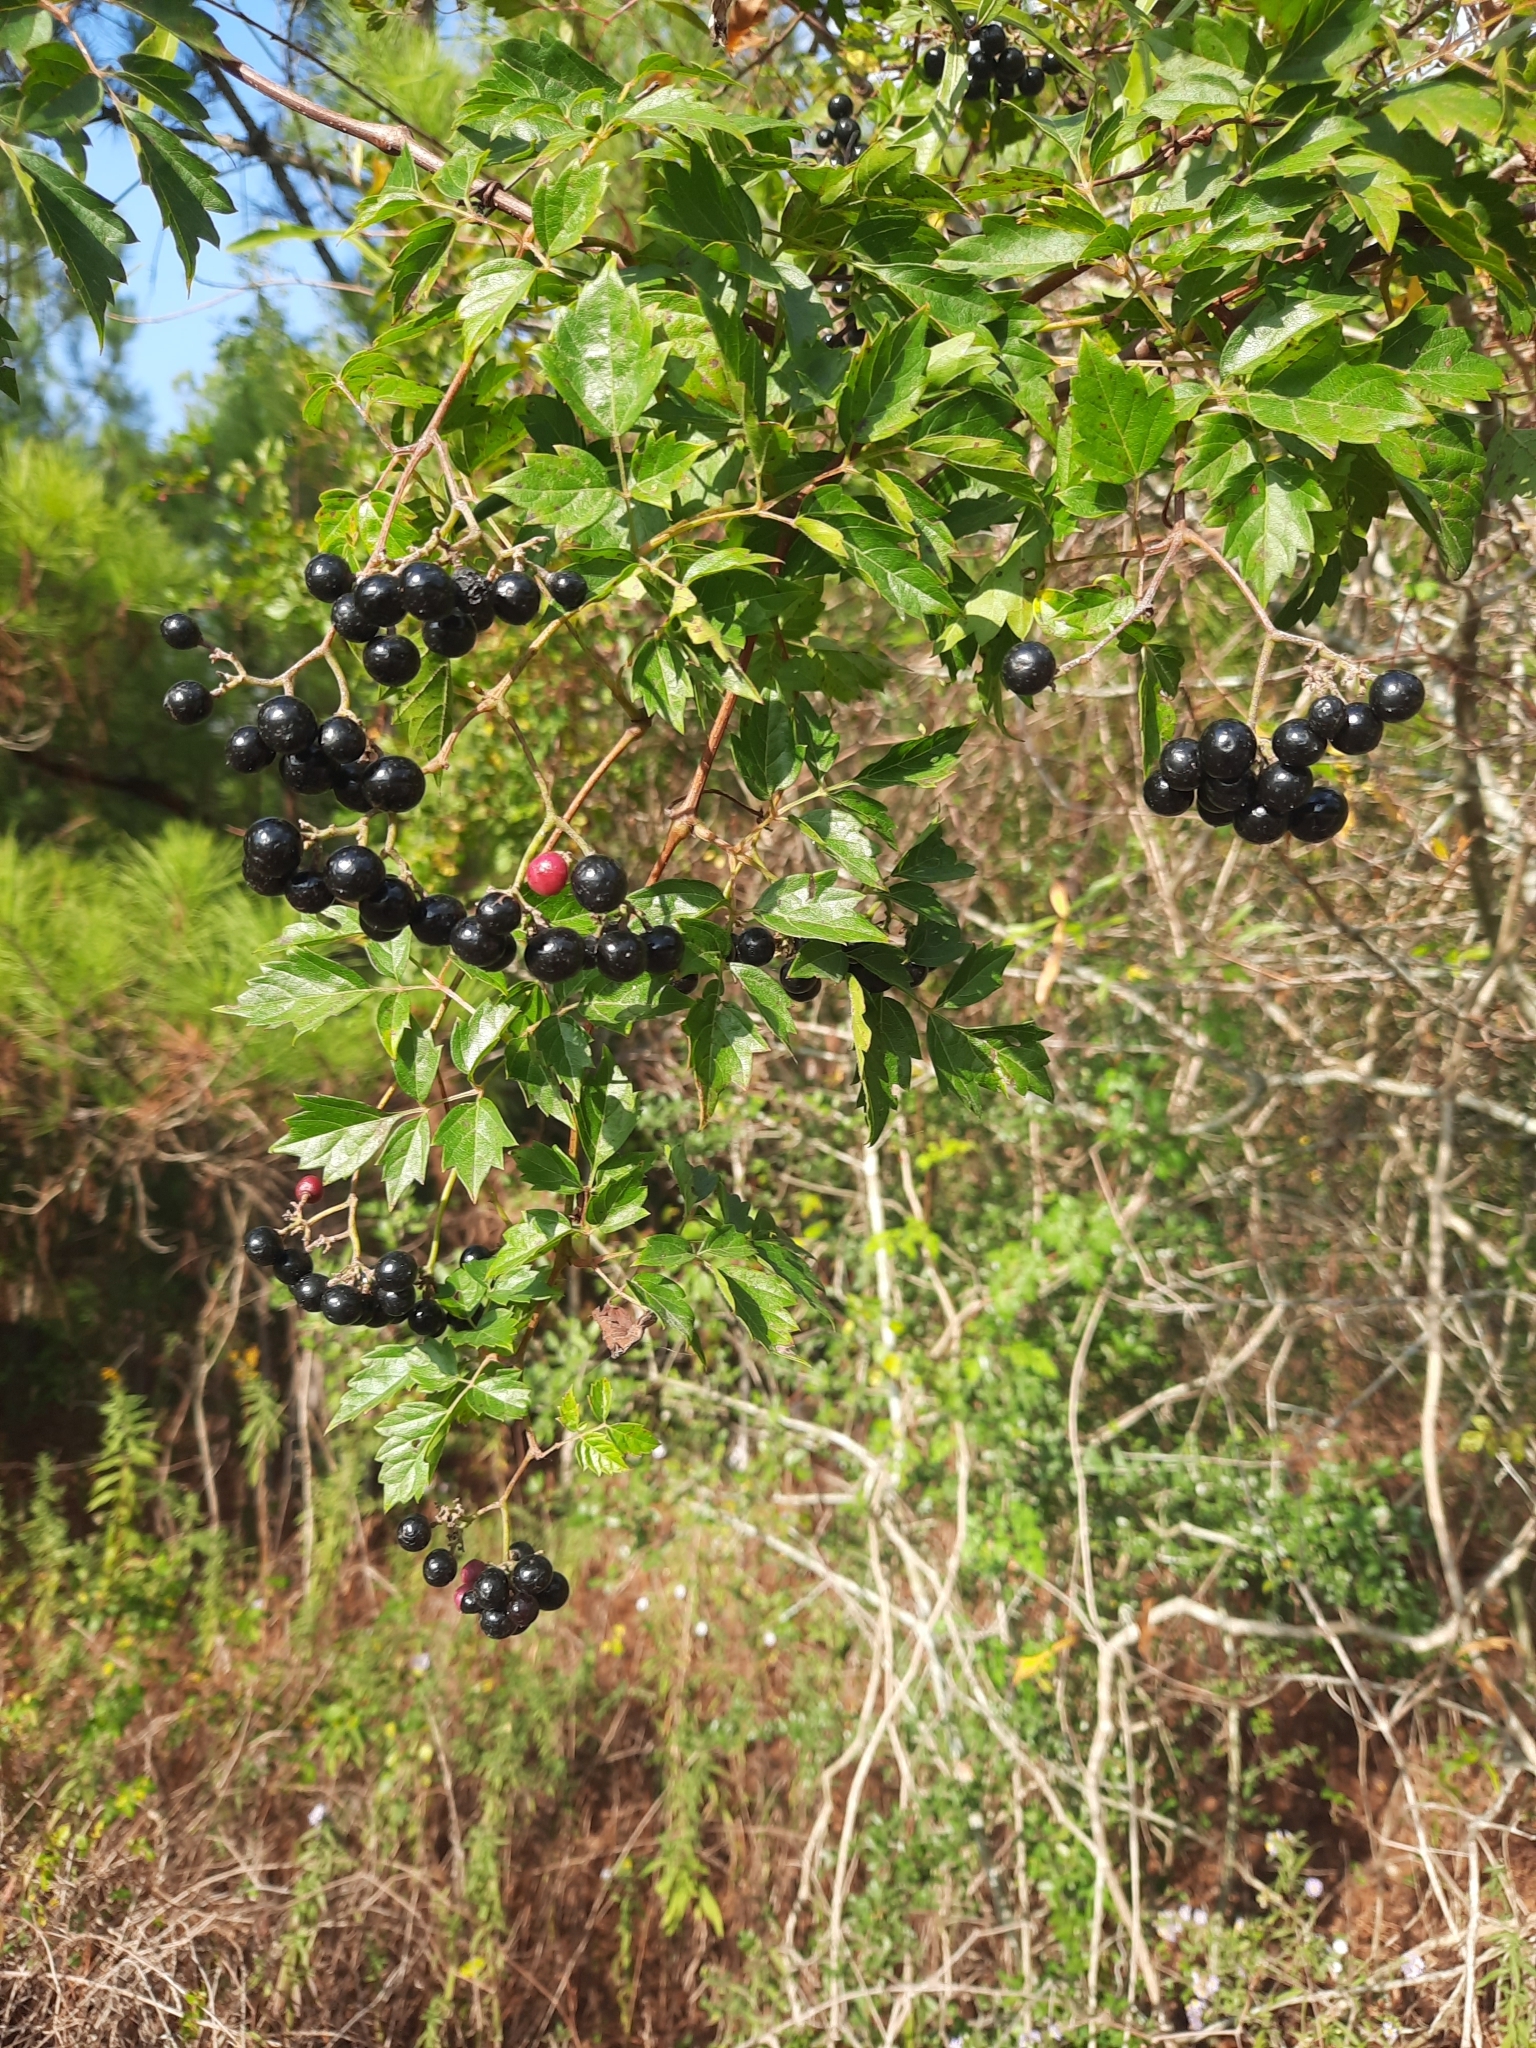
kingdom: Plantae
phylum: Tracheophyta
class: Magnoliopsida
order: Vitales
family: Vitaceae
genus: Nekemias
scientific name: Nekemias arborea
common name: Peppervine
